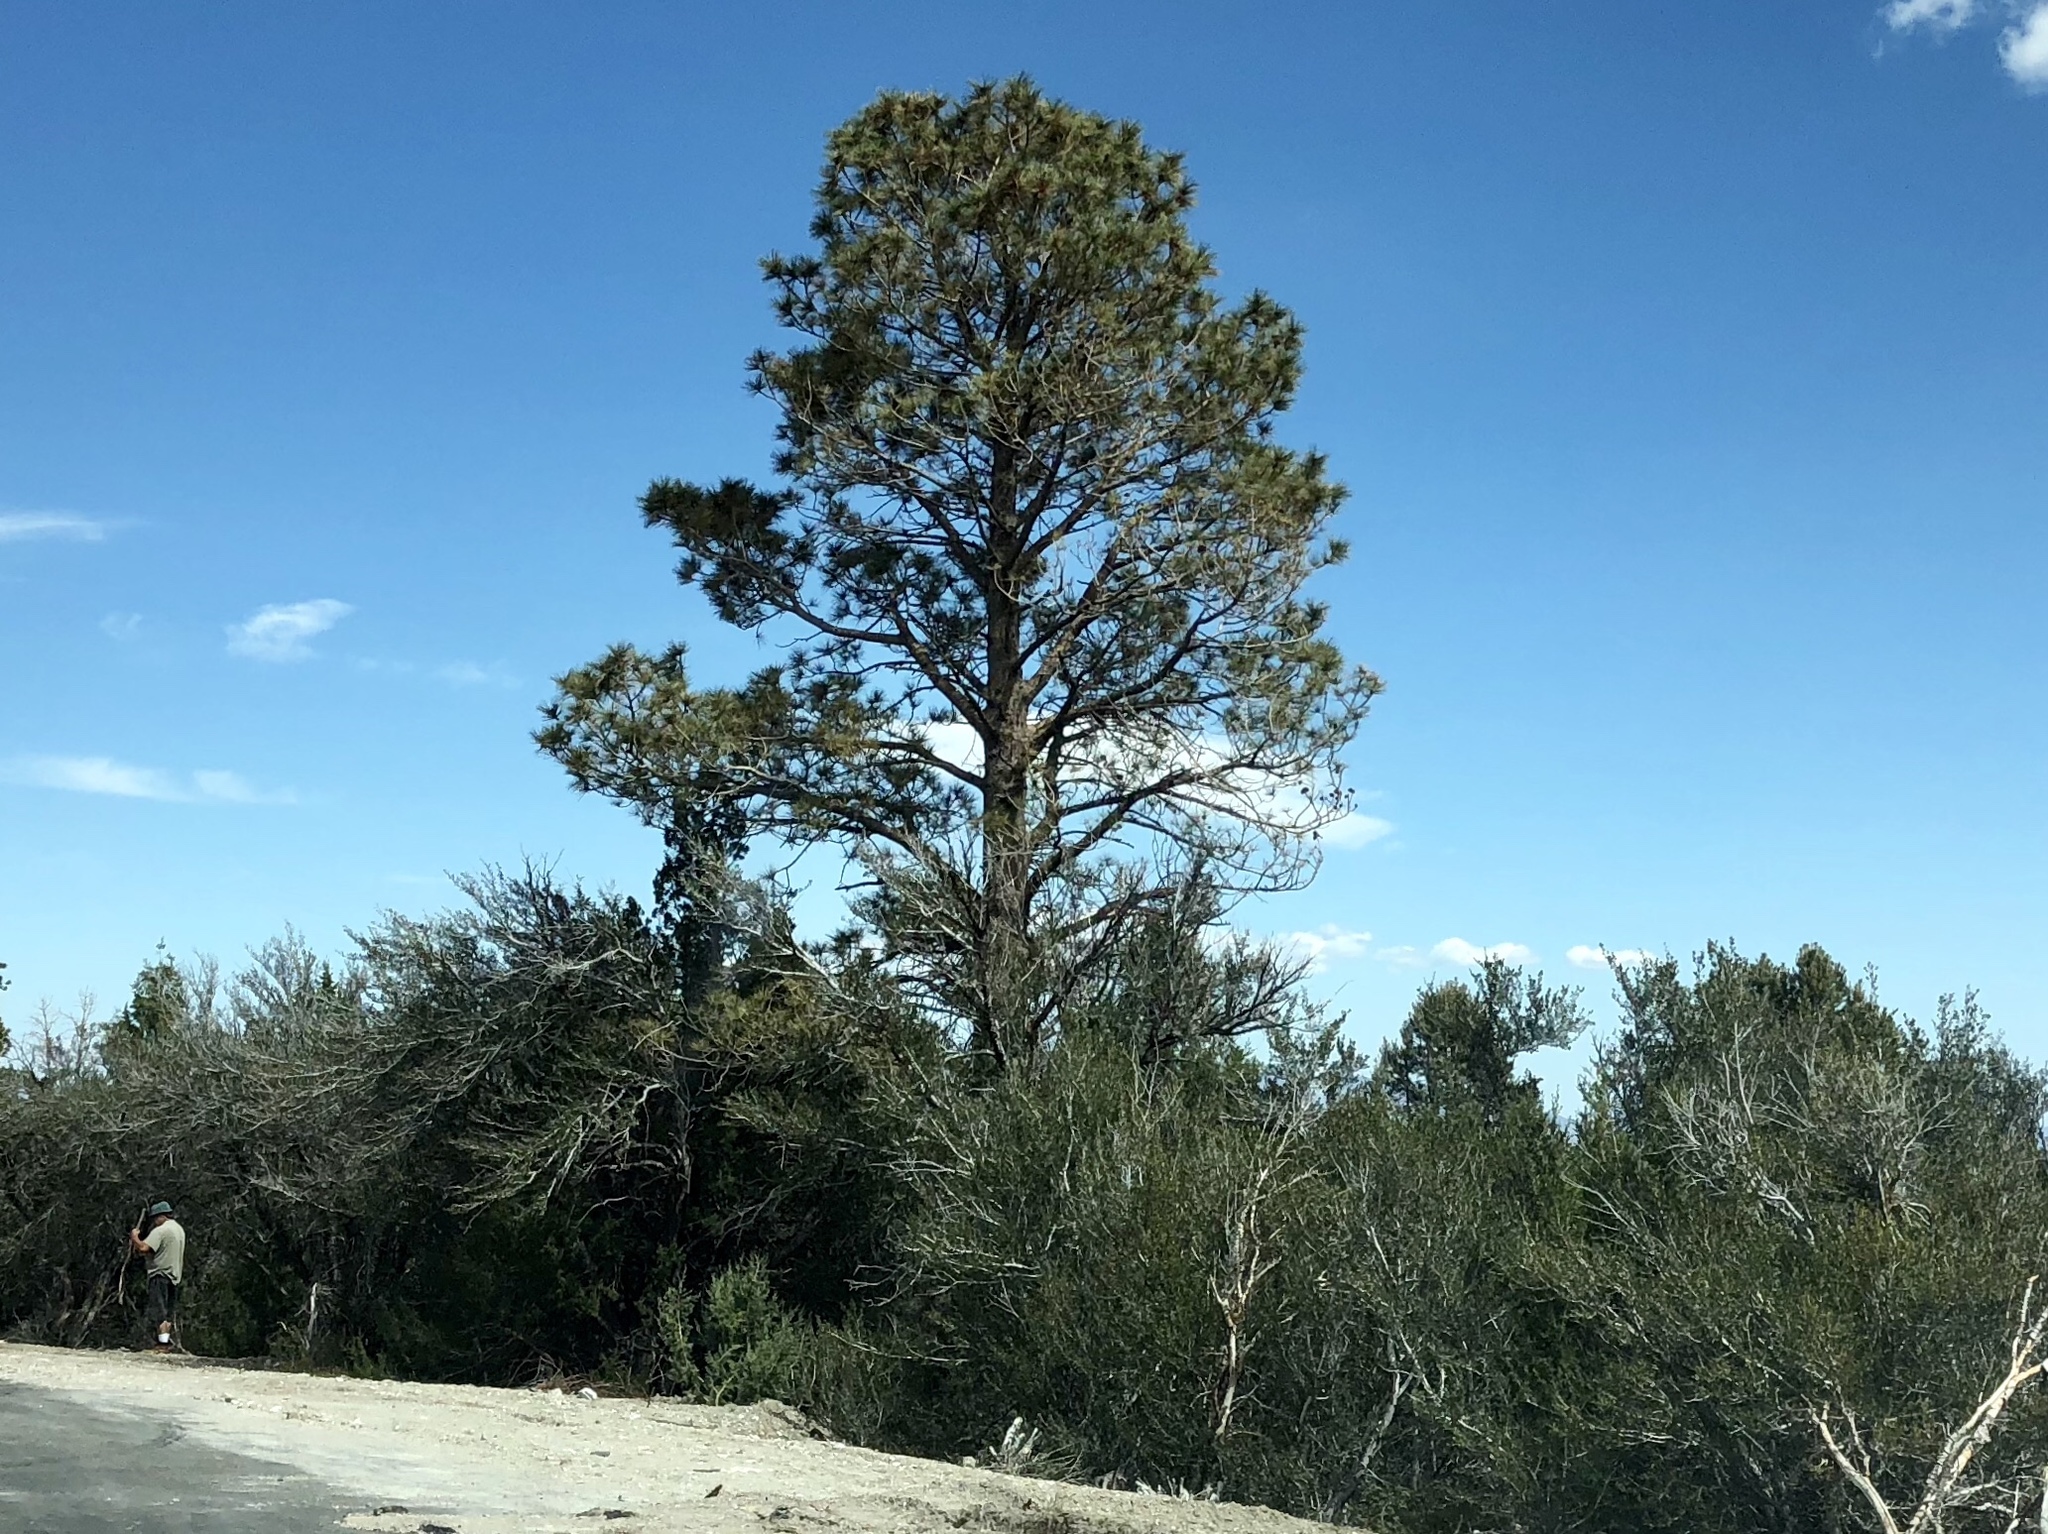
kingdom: Plantae
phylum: Tracheophyta
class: Pinopsida
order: Pinales
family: Pinaceae
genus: Pinus
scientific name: Pinus ponderosa
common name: Western yellow-pine
